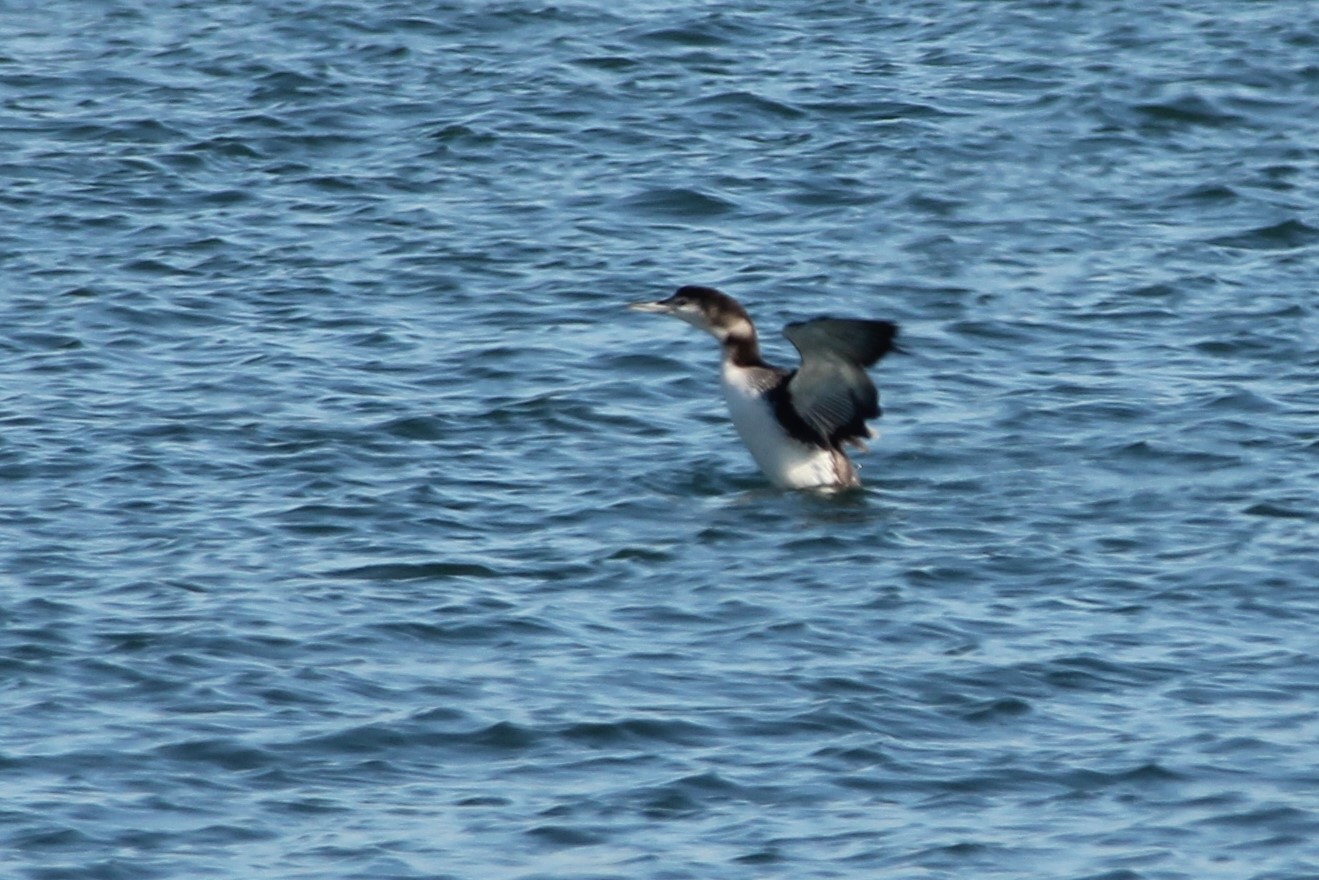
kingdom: Animalia
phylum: Chordata
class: Aves
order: Gaviiformes
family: Gaviidae
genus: Gavia
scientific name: Gavia immer
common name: Common loon
